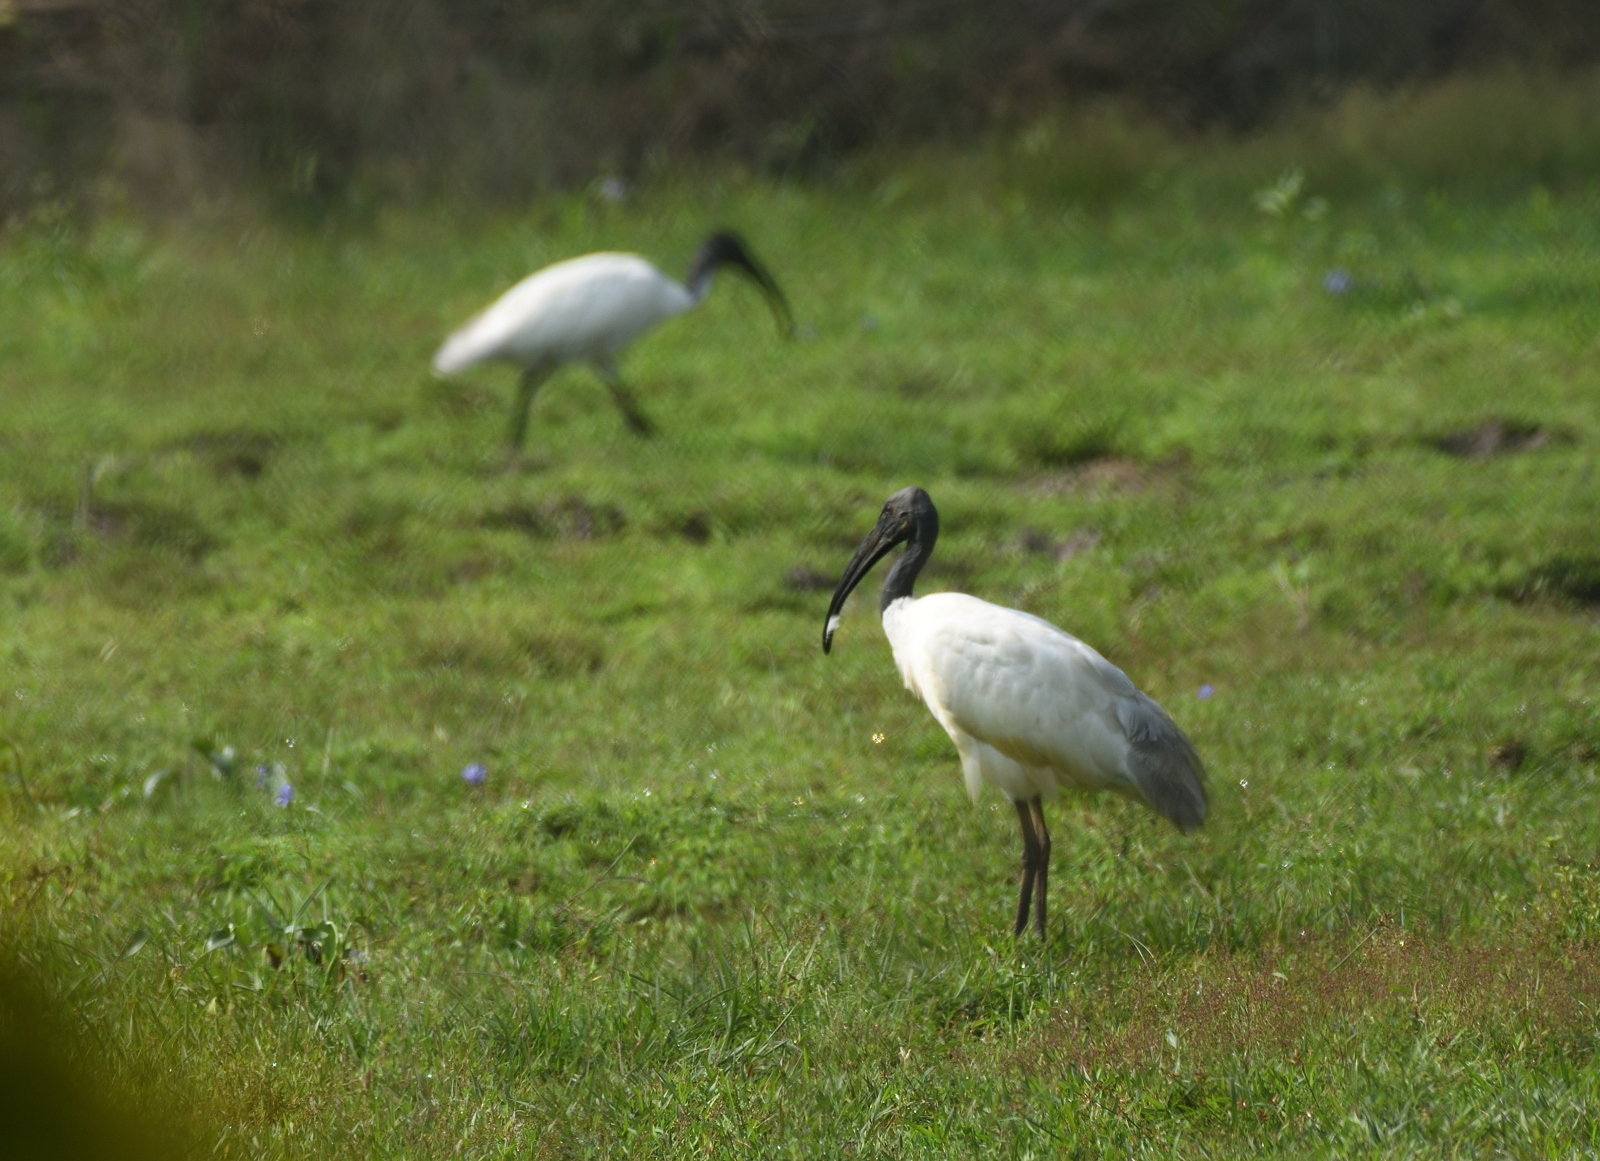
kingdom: Animalia
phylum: Chordata
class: Aves
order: Pelecaniformes
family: Threskiornithidae
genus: Threskiornis
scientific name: Threskiornis melanocephalus
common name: Black-headed ibis
